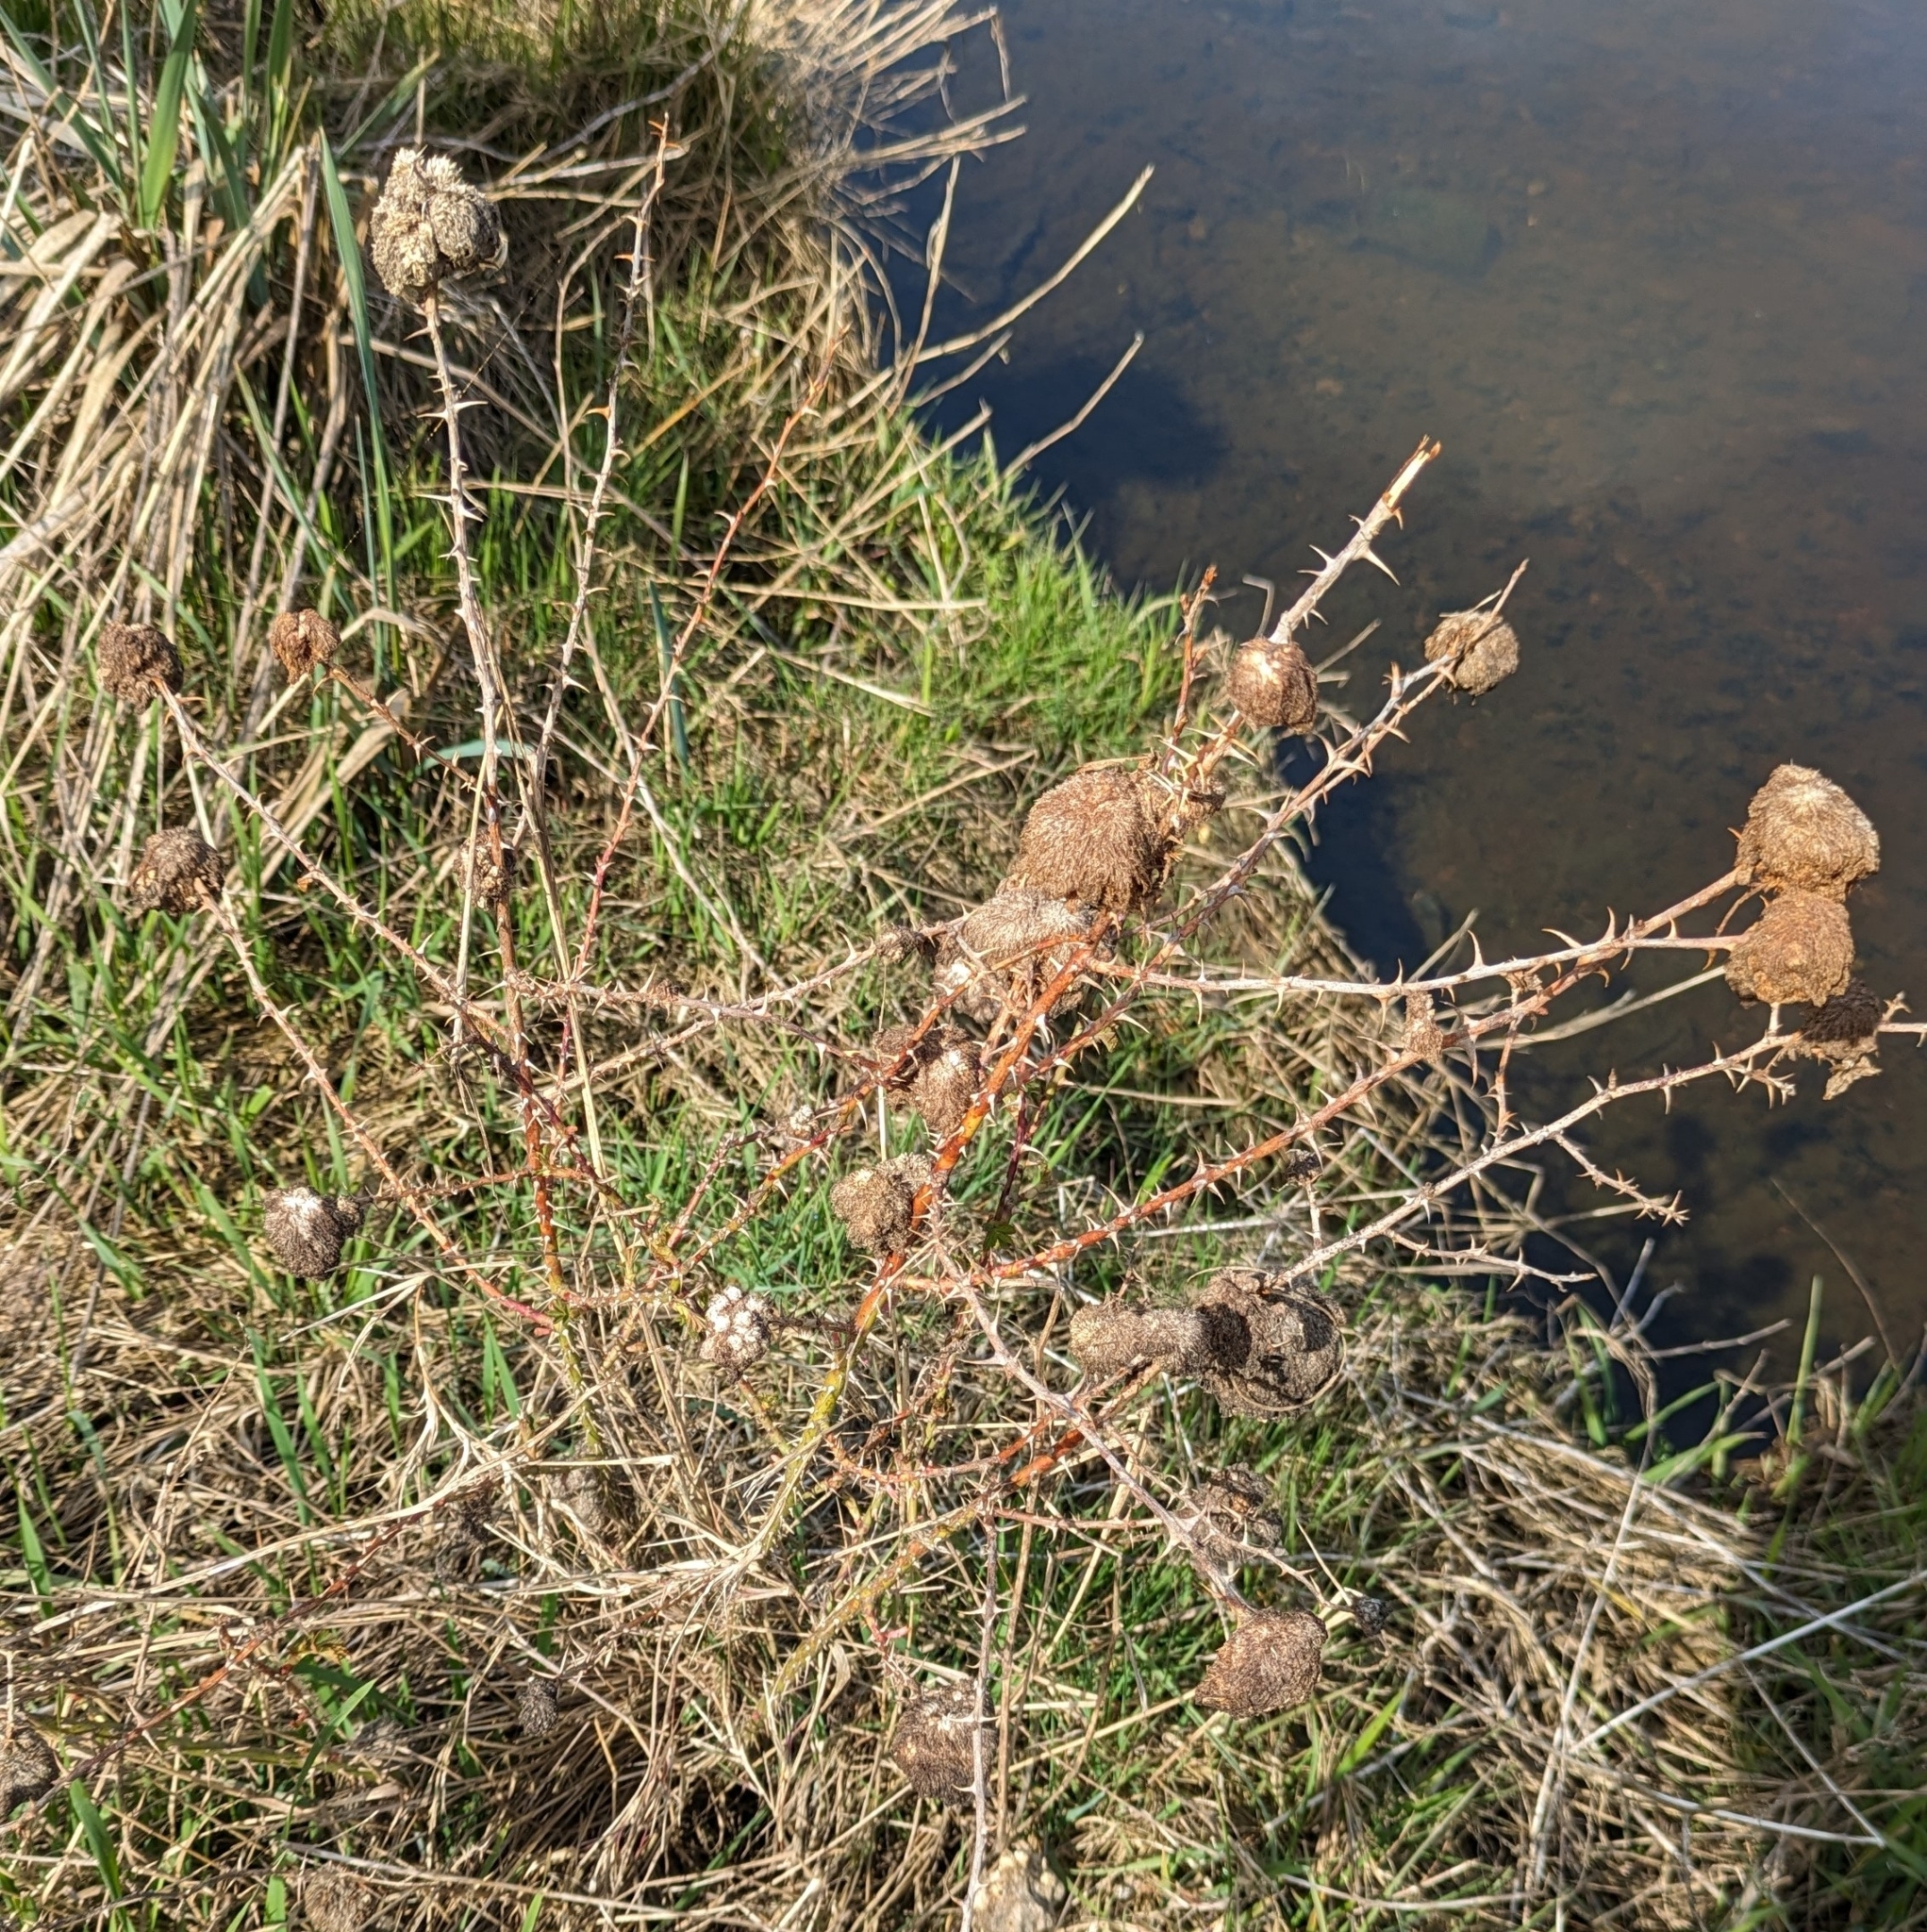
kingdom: Animalia
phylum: Arthropoda
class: Insecta
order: Hymenoptera
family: Cynipidae
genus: Diplolepis
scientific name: Diplolepis rosae
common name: Bedeguar gall
